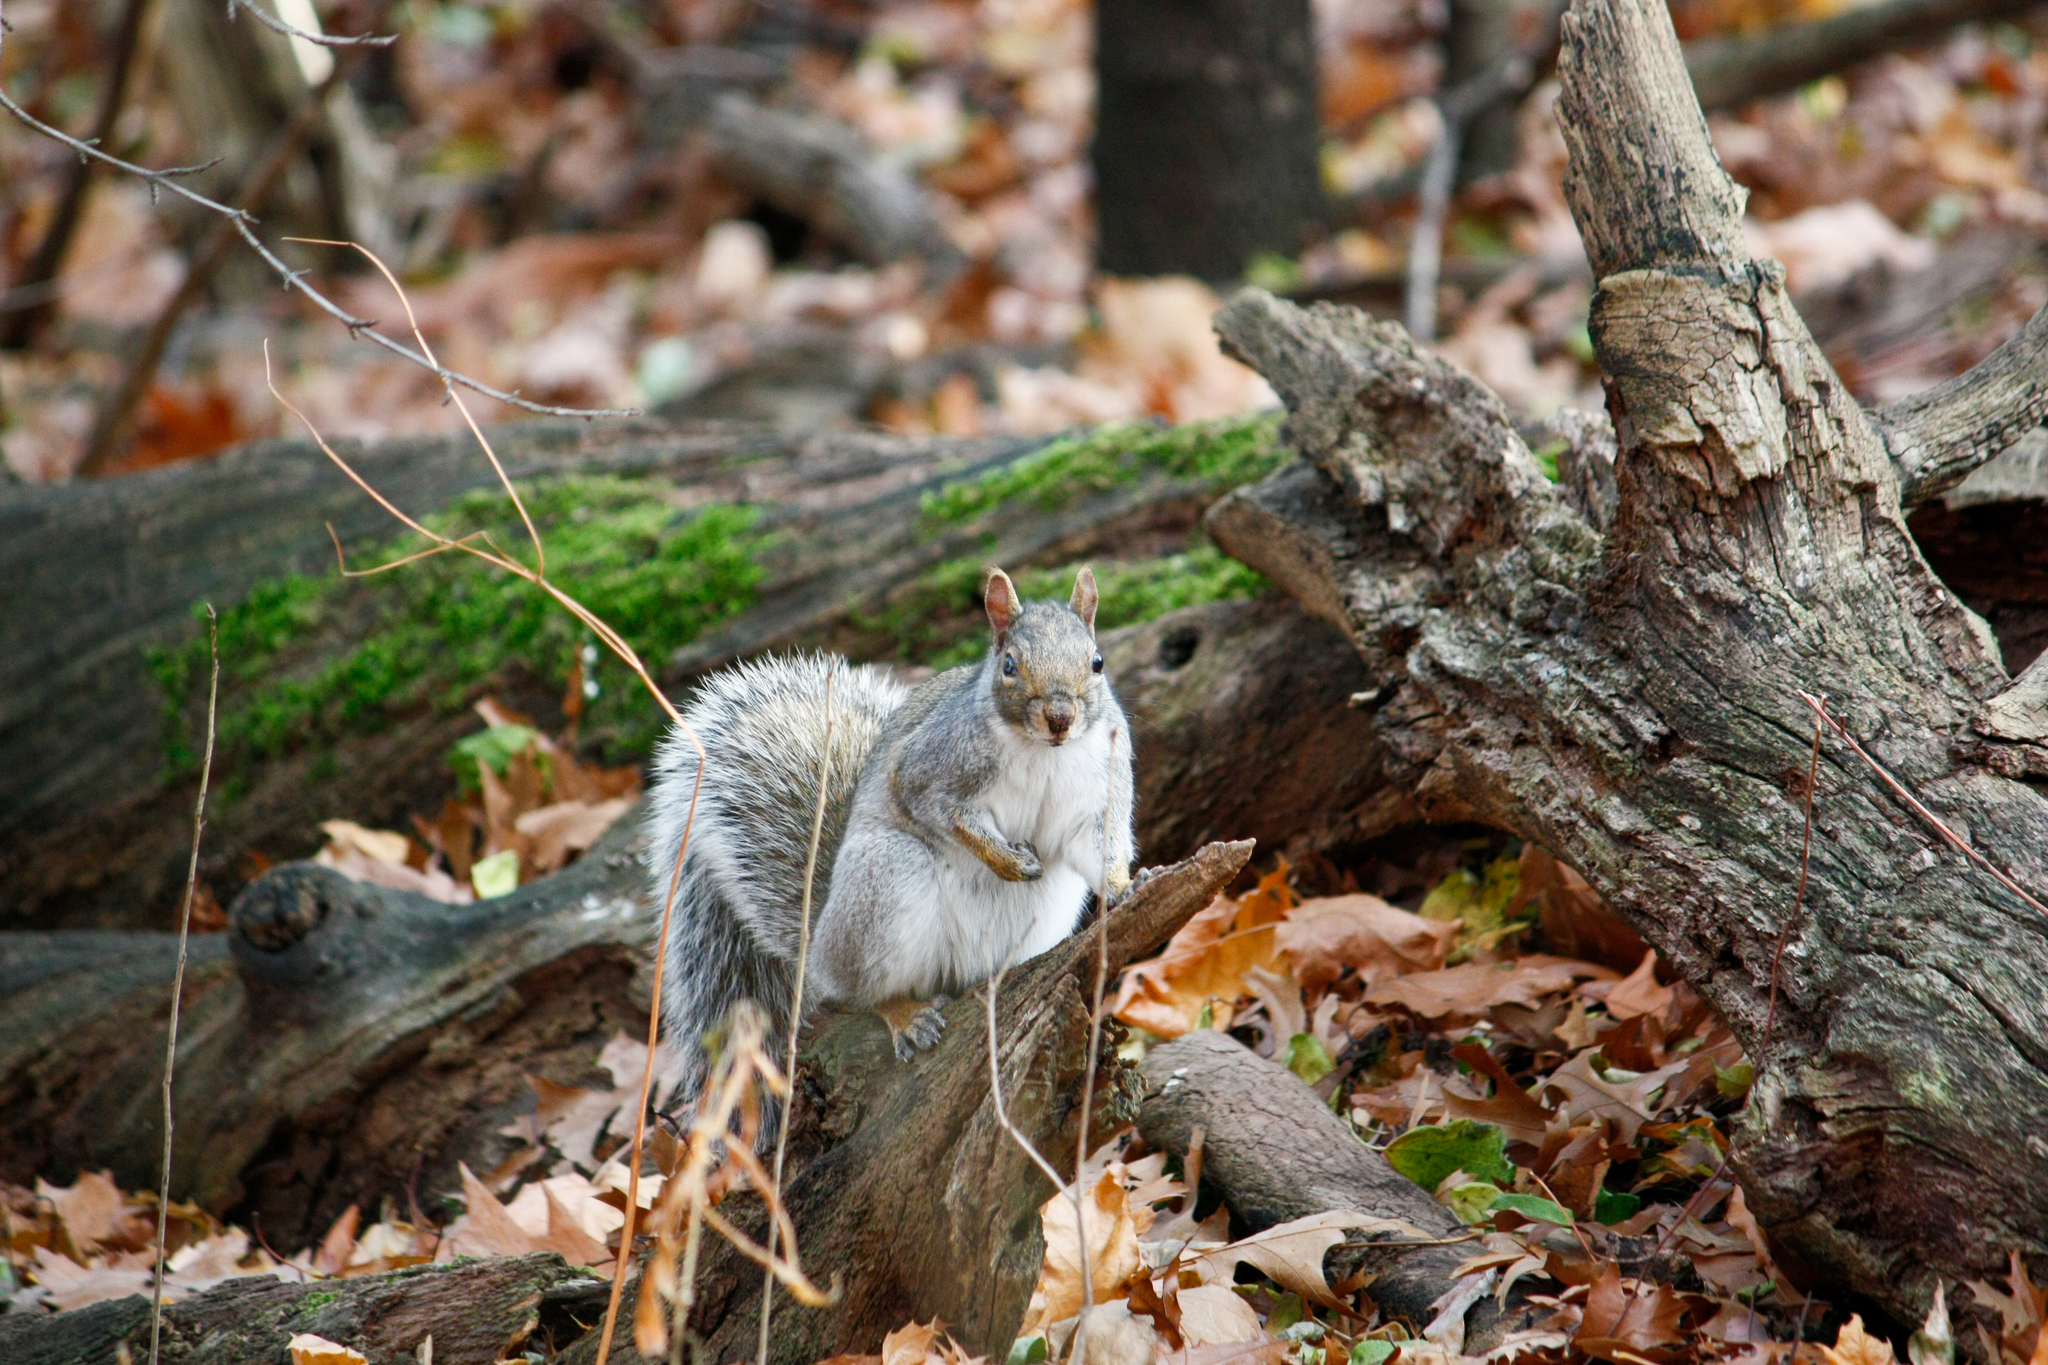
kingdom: Animalia
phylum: Chordata
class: Mammalia
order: Rodentia
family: Sciuridae
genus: Sciurus
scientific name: Sciurus carolinensis
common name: Eastern gray squirrel
